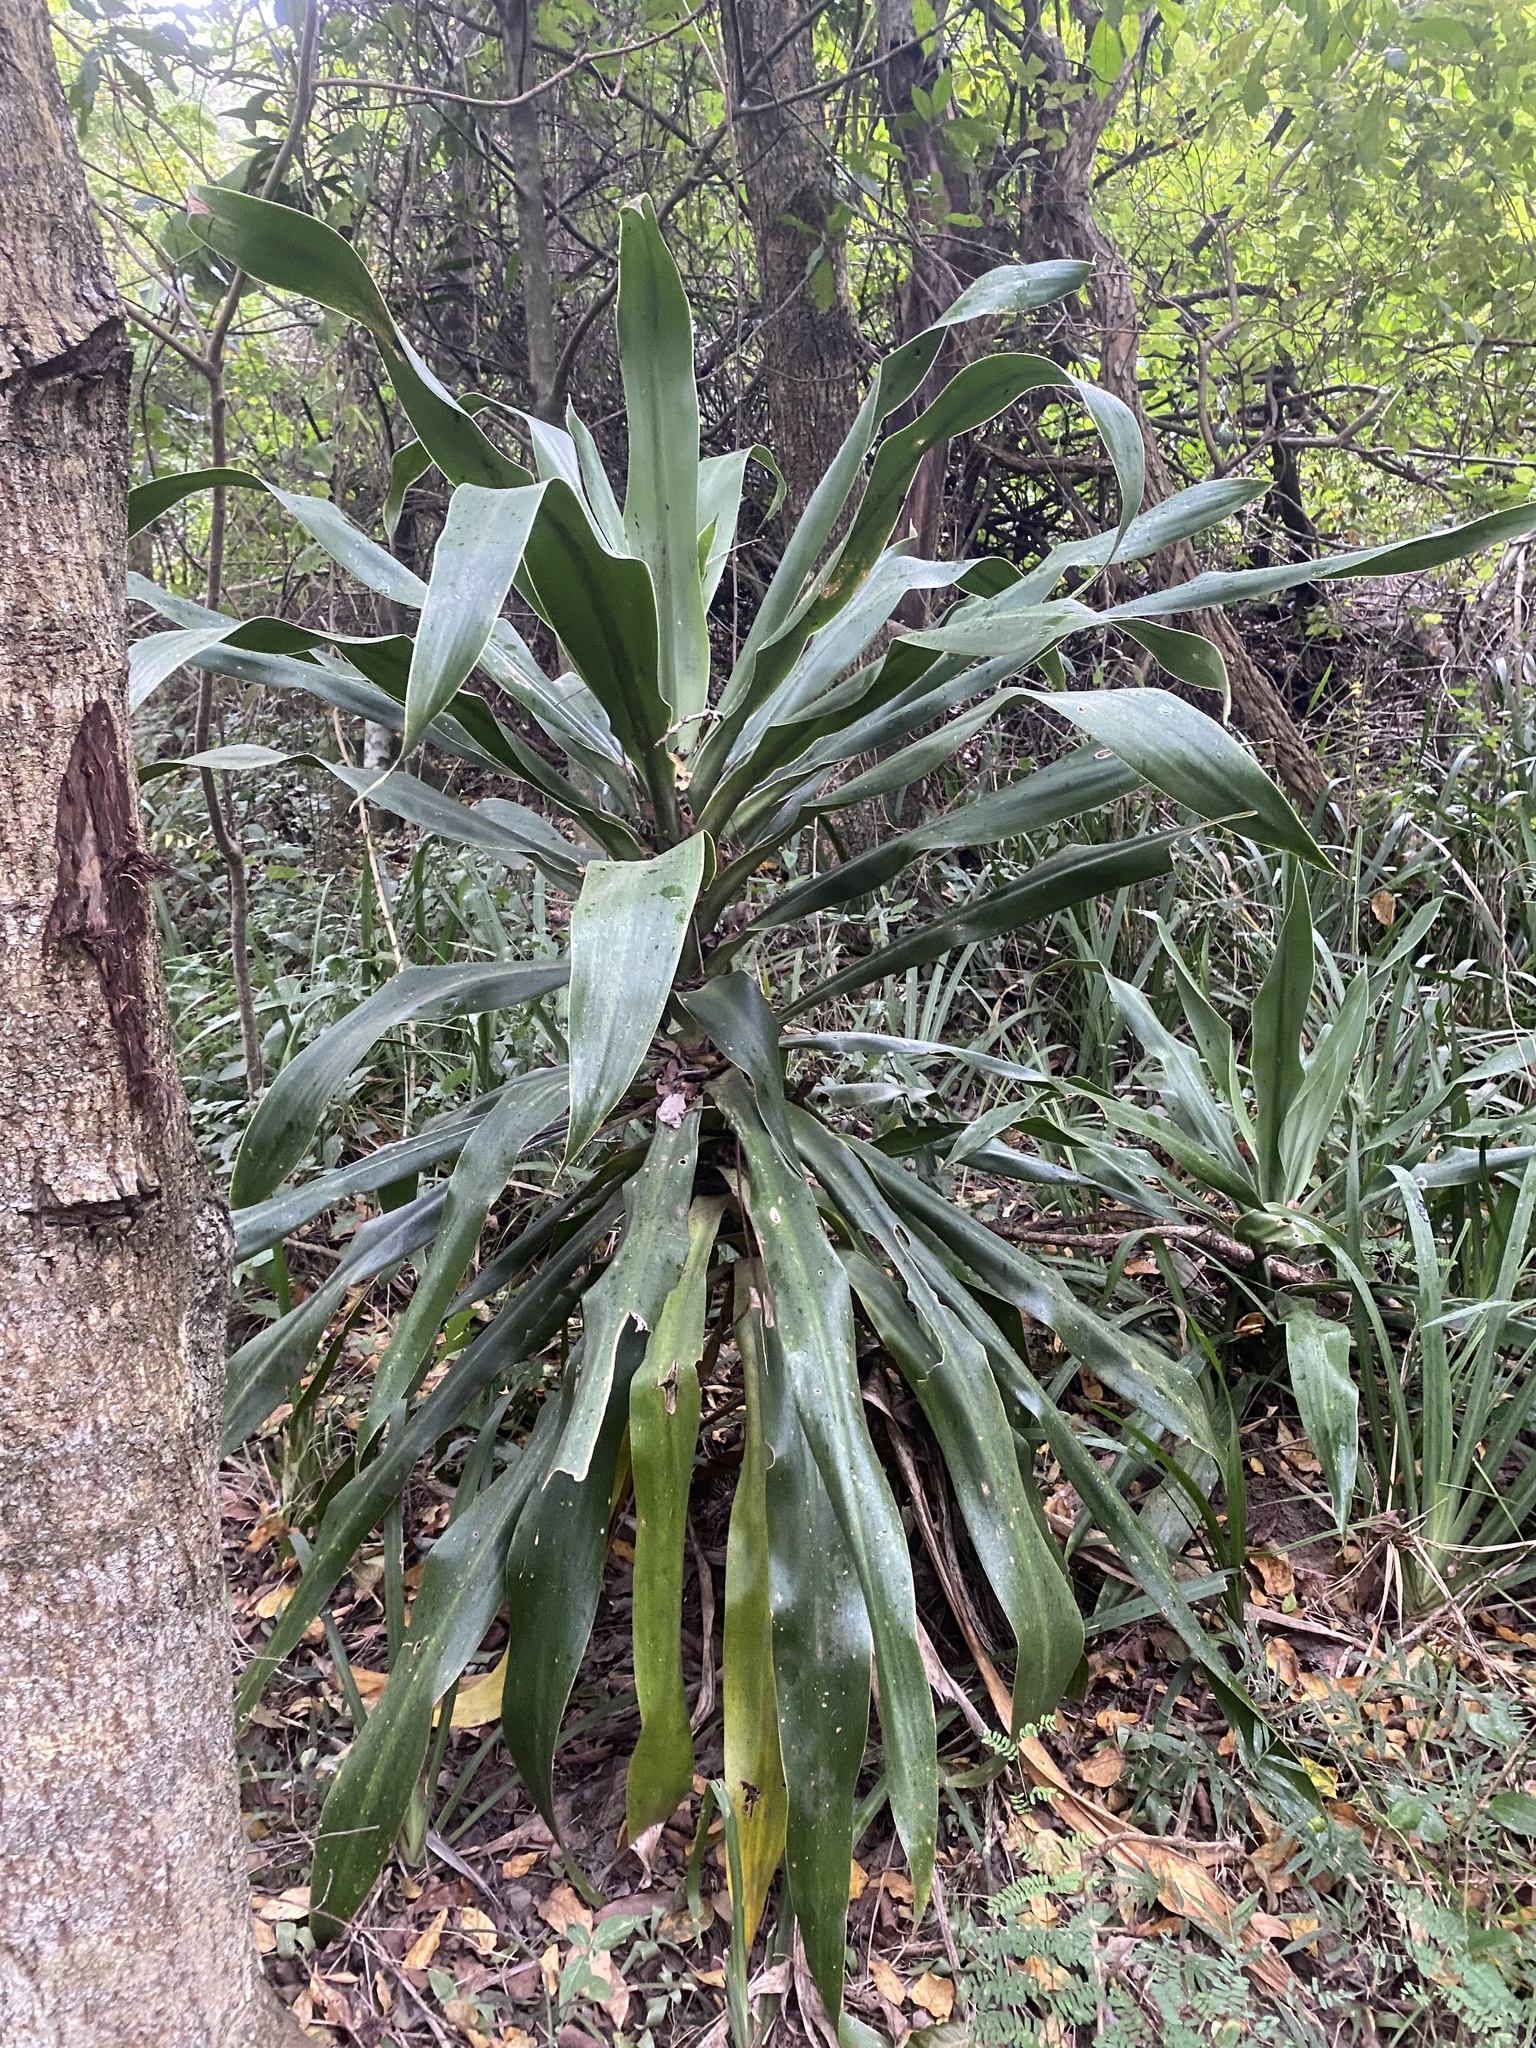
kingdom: Plantae
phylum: Tracheophyta
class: Liliopsida
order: Asparagales
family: Asparagaceae
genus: Dracaena
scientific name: Dracaena aletriformis
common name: Large-leaved dragon tree
